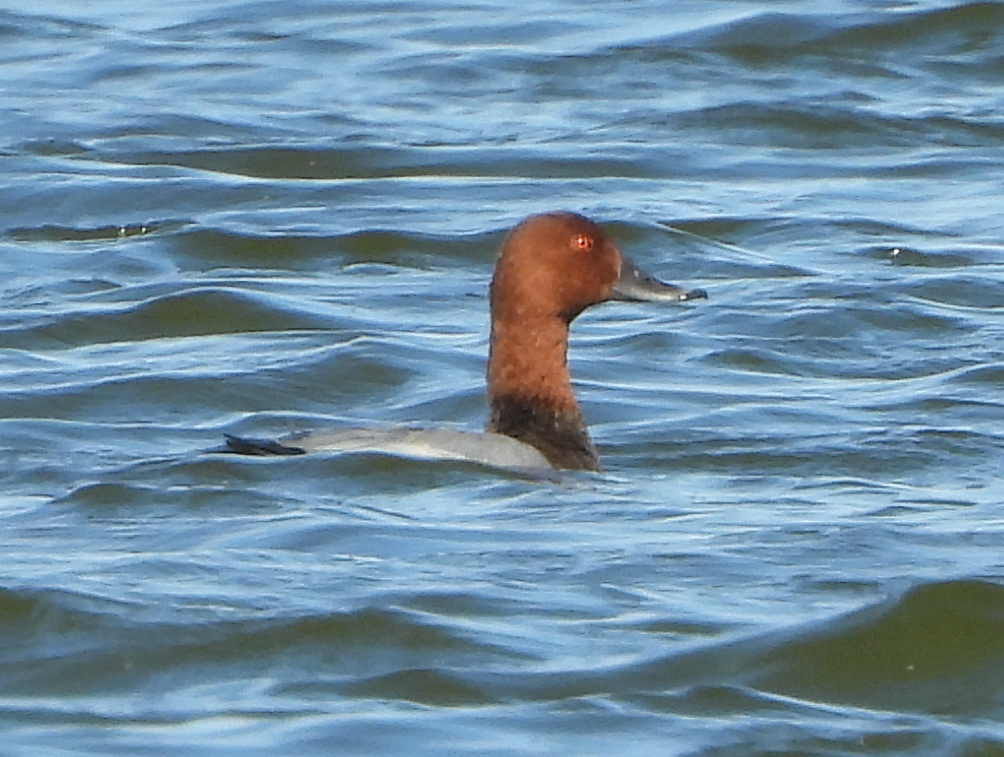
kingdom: Animalia
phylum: Chordata
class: Aves
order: Anseriformes
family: Anatidae
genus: Aythya
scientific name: Aythya ferina
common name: Common pochard
